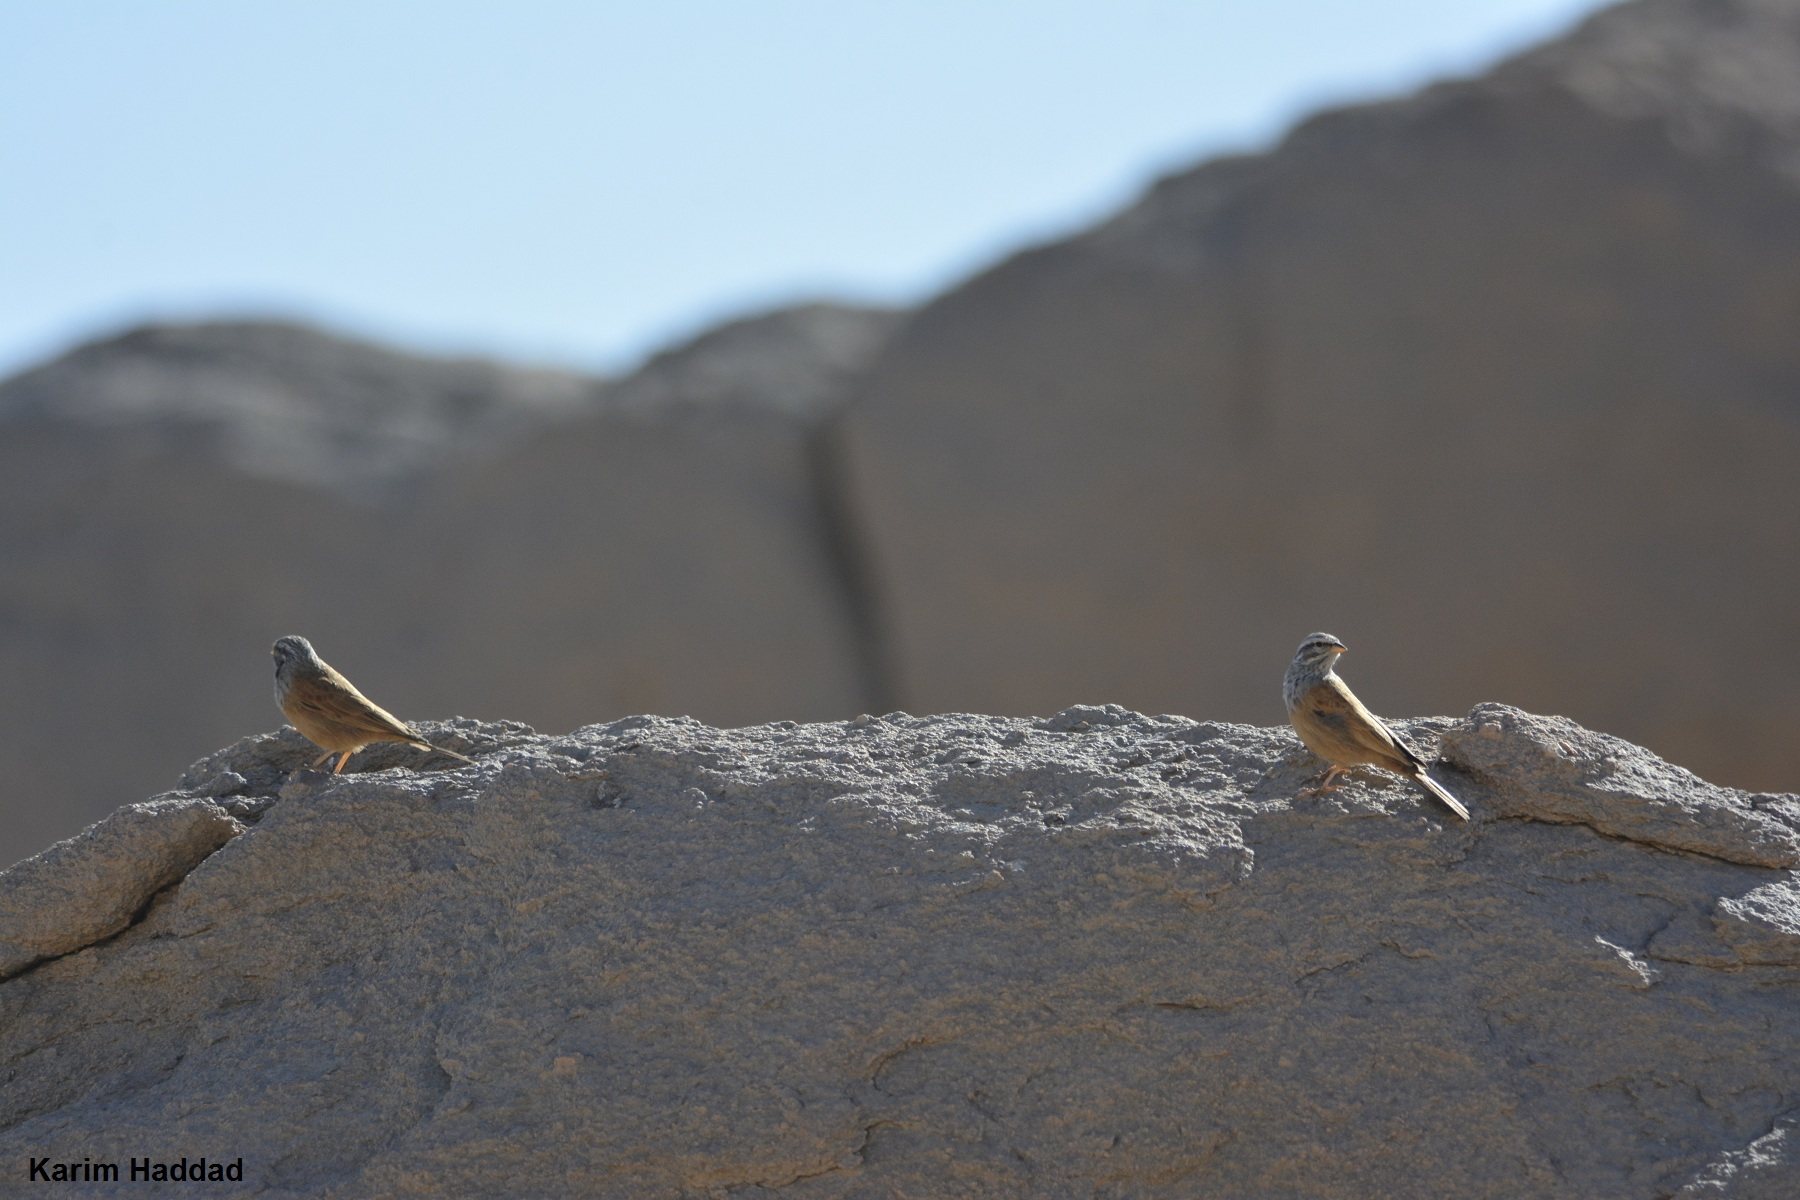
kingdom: Animalia
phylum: Chordata
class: Aves
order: Passeriformes
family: Emberizidae
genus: Emberiza
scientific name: Emberiza sahari
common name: House bunting
